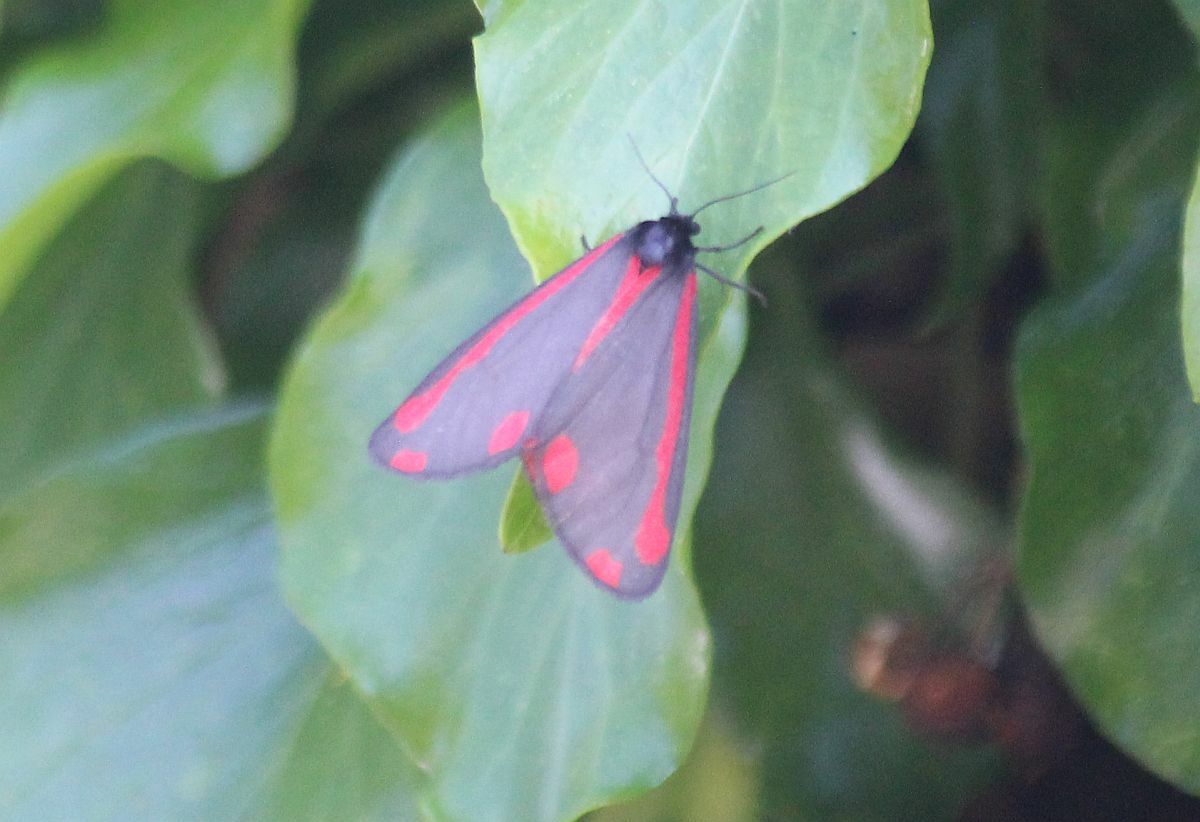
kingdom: Animalia
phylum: Arthropoda
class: Insecta
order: Lepidoptera
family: Erebidae
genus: Tyria
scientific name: Tyria jacobaeae
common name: Cinnabar
